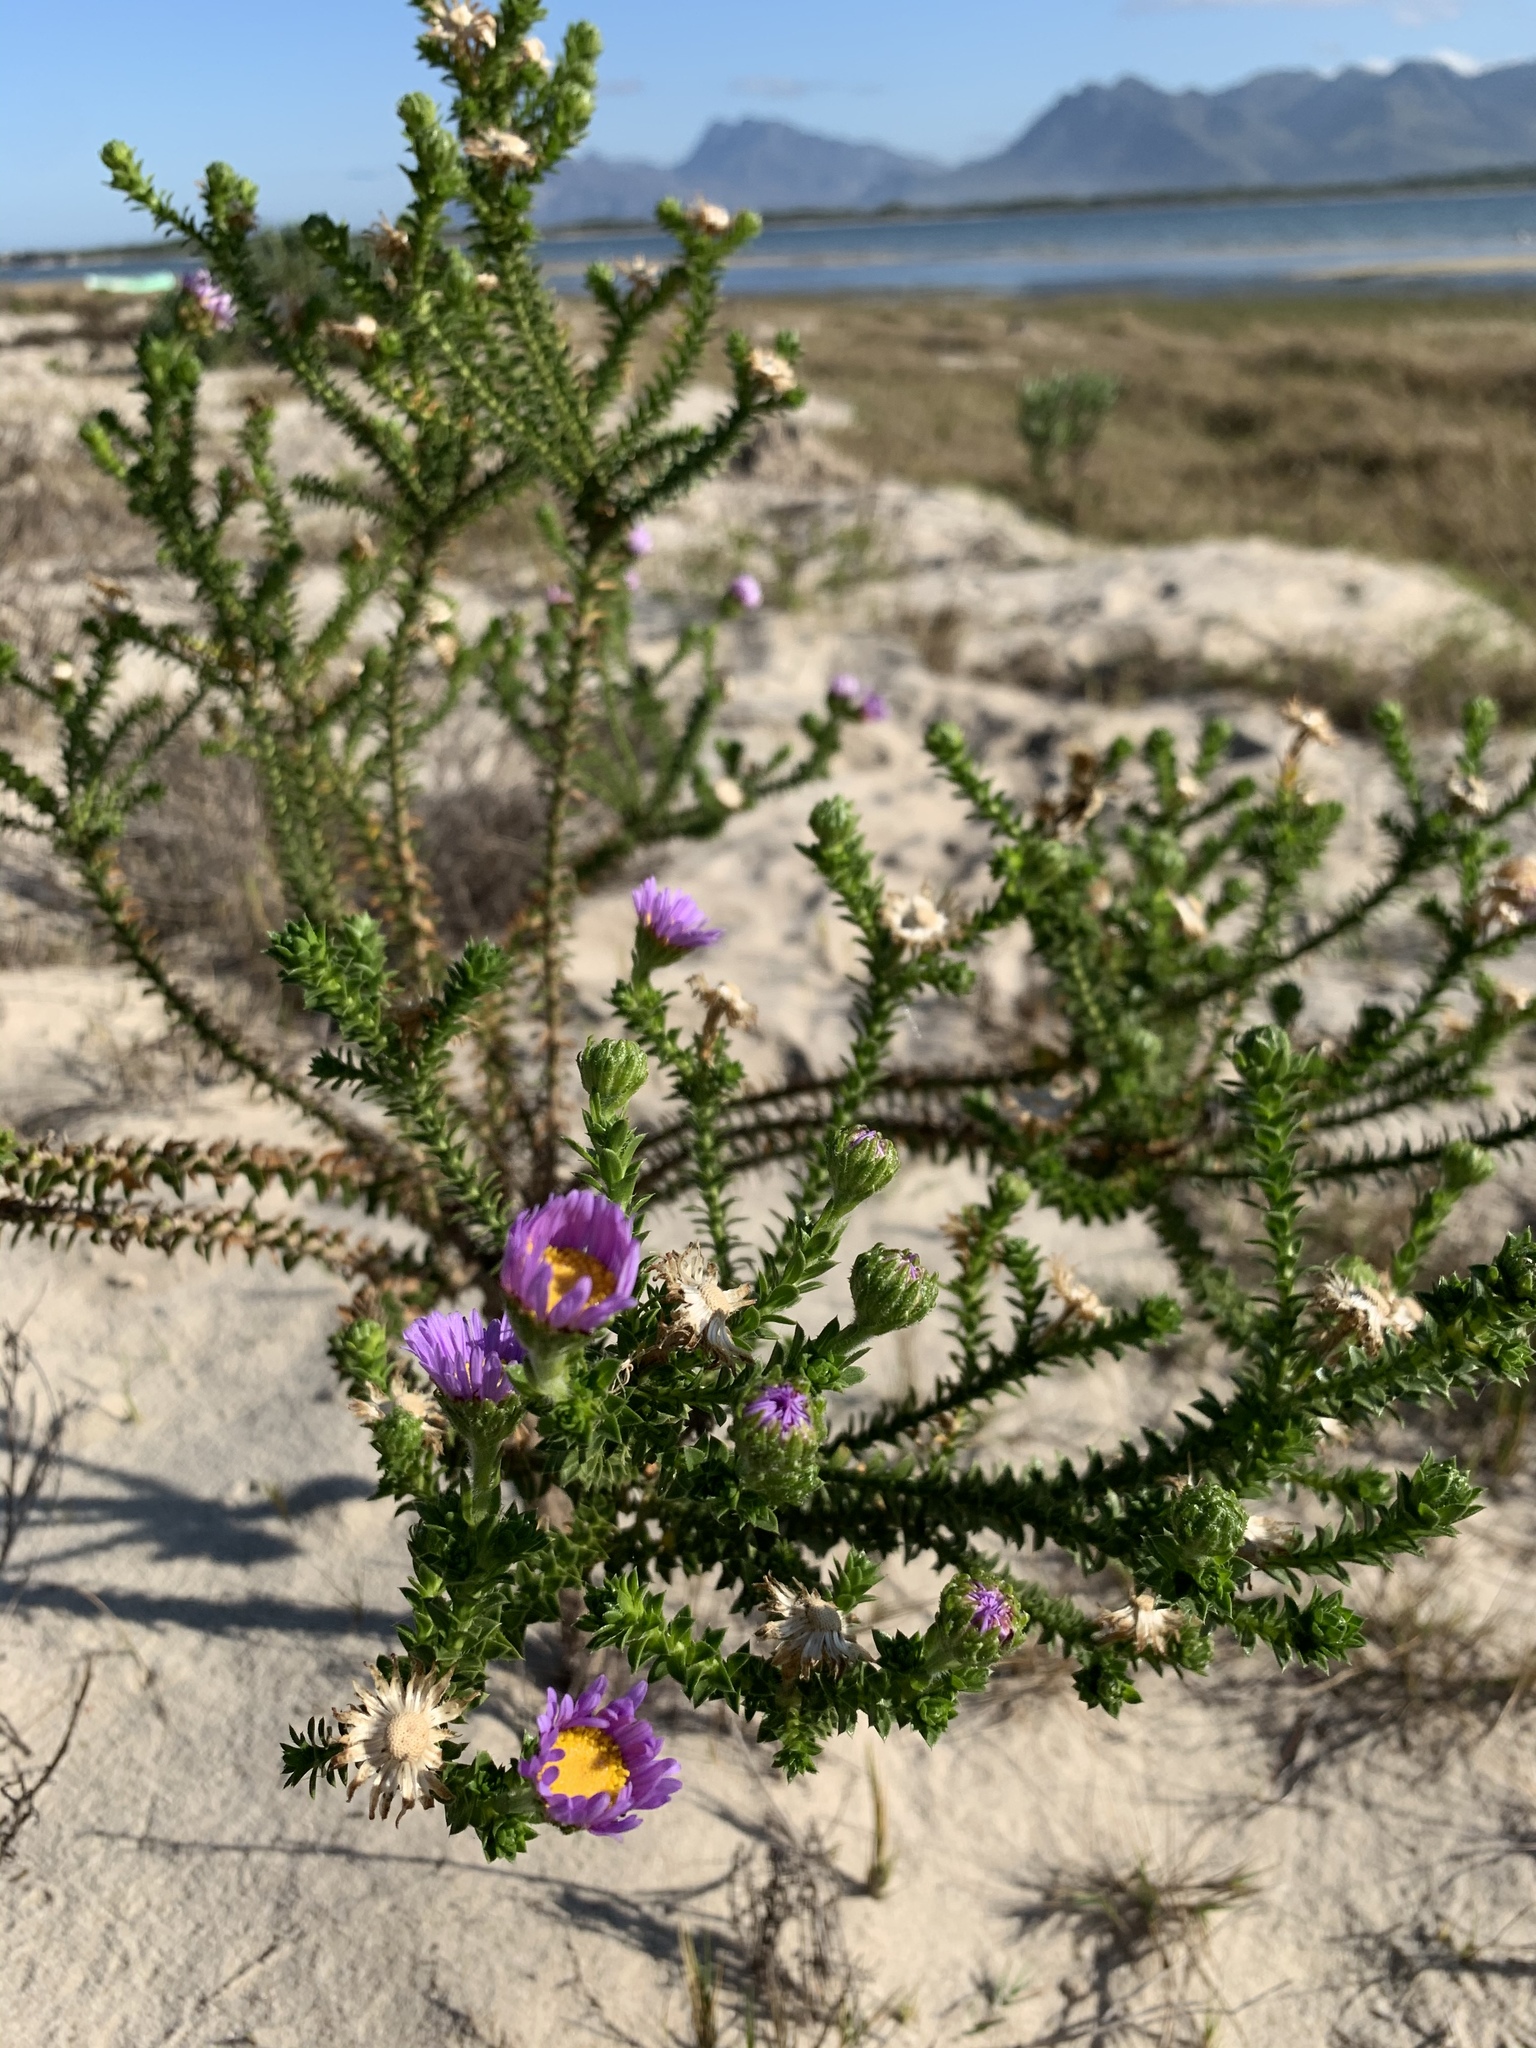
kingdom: Plantae
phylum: Tracheophyta
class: Magnoliopsida
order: Asterales
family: Asteraceae
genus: Felicia
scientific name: Felicia echinata
